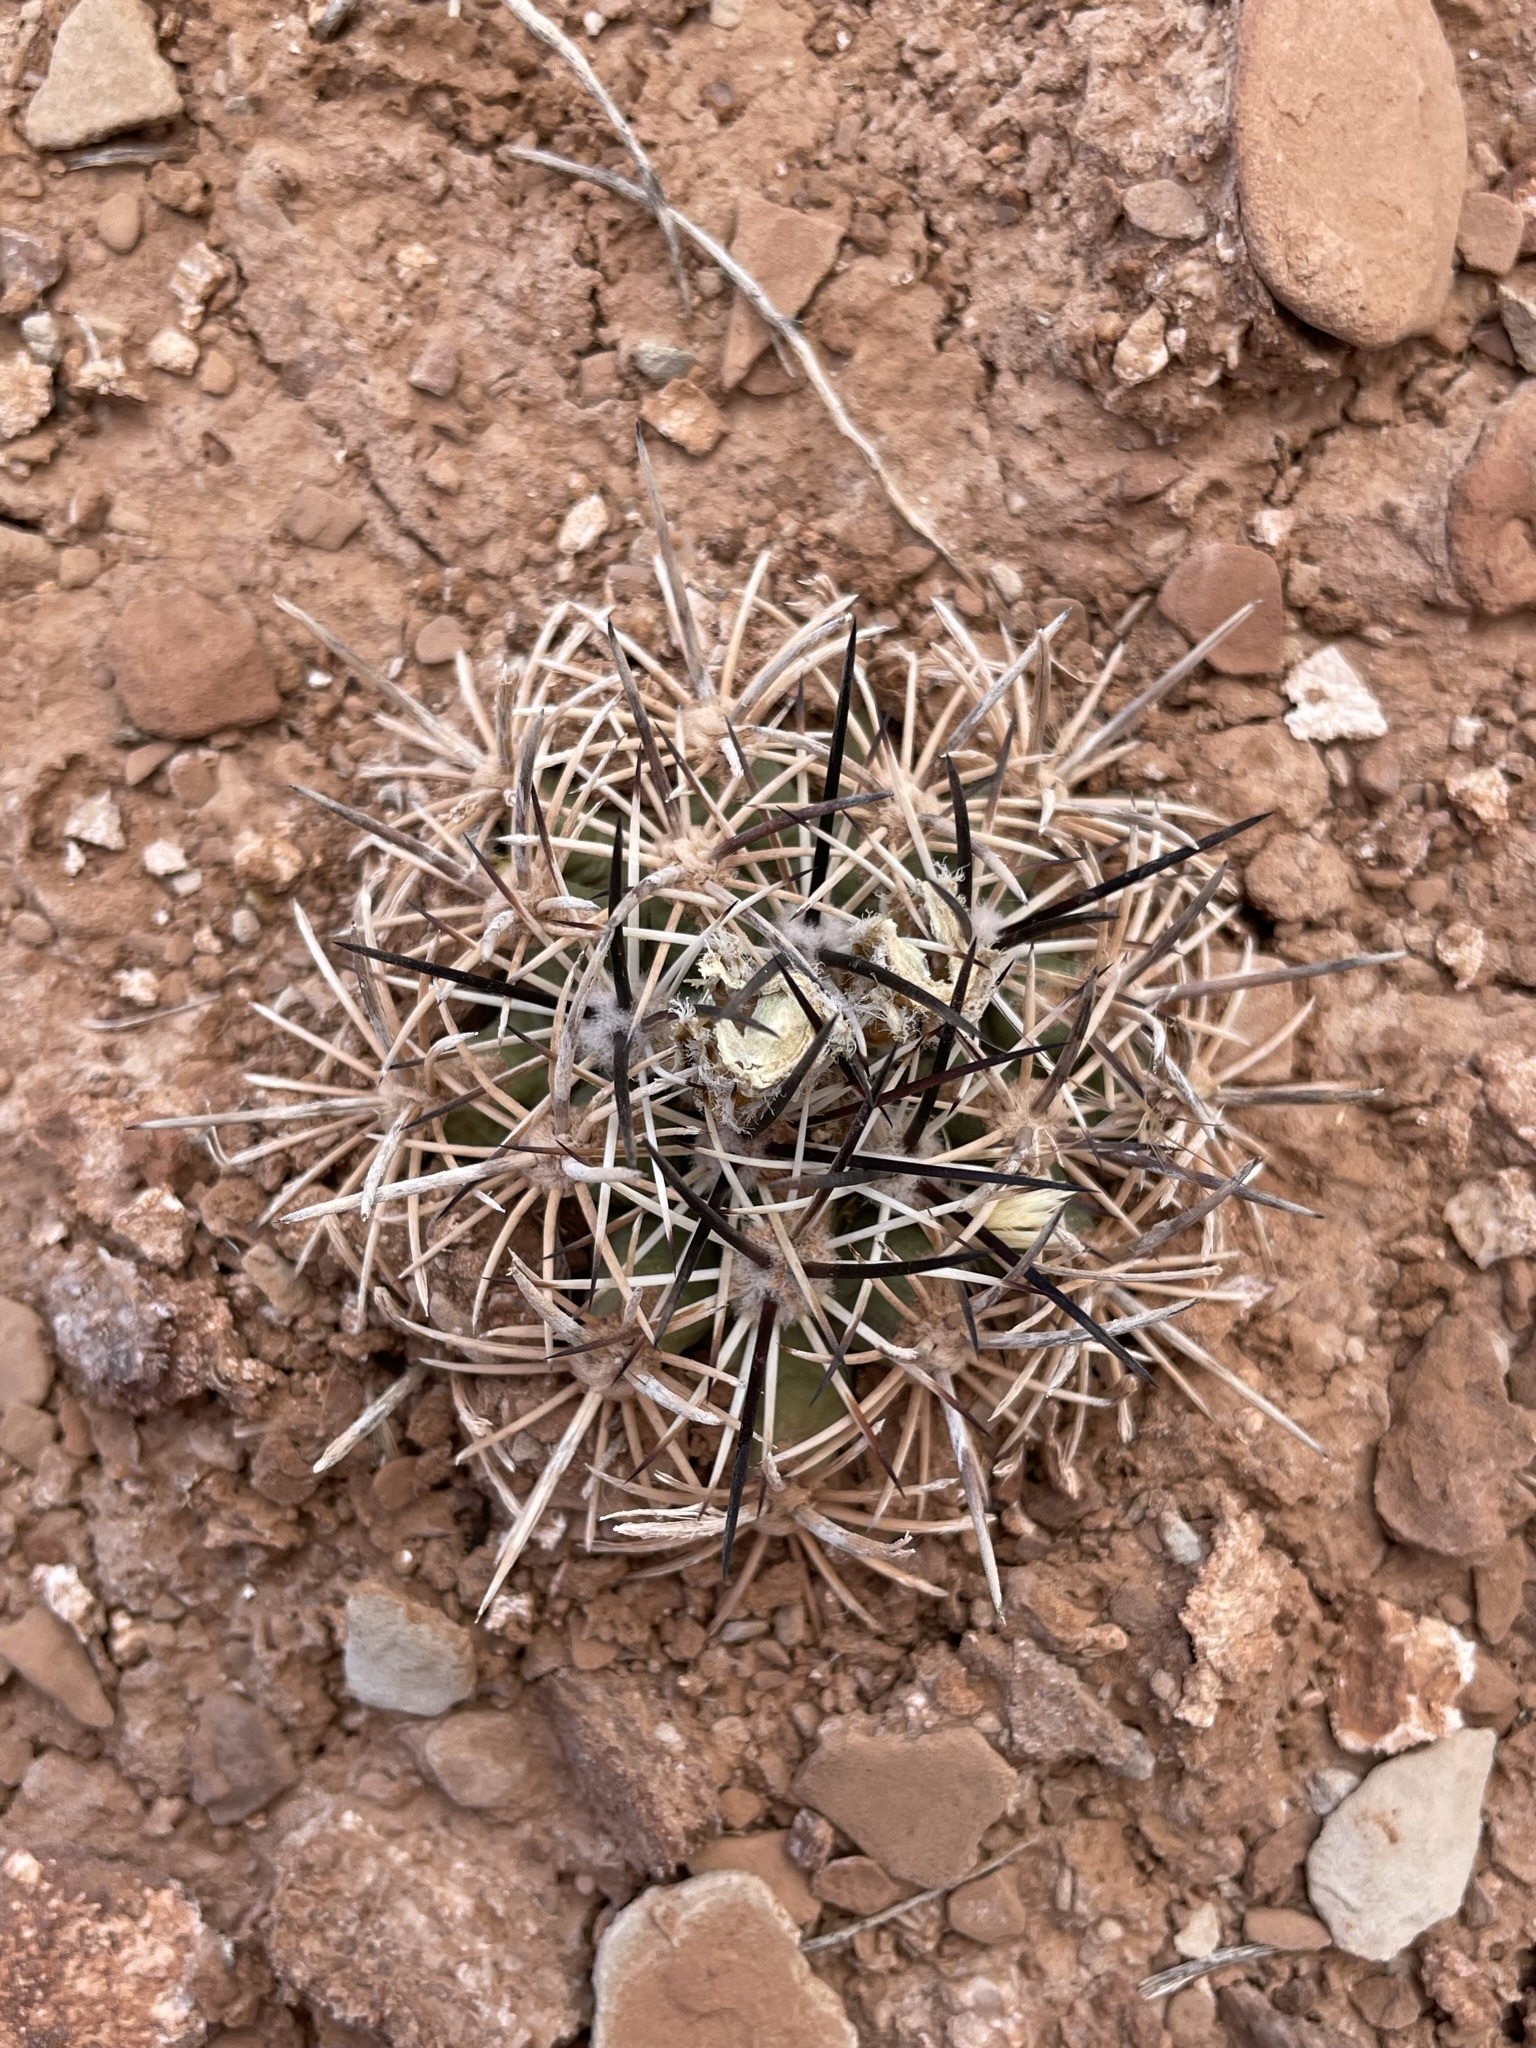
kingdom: Plantae
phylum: Tracheophyta
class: Magnoliopsida
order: Caryophyllales
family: Cactaceae
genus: Pediocactus
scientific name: Pediocactus sileri
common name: Siler's pincushion cactus
